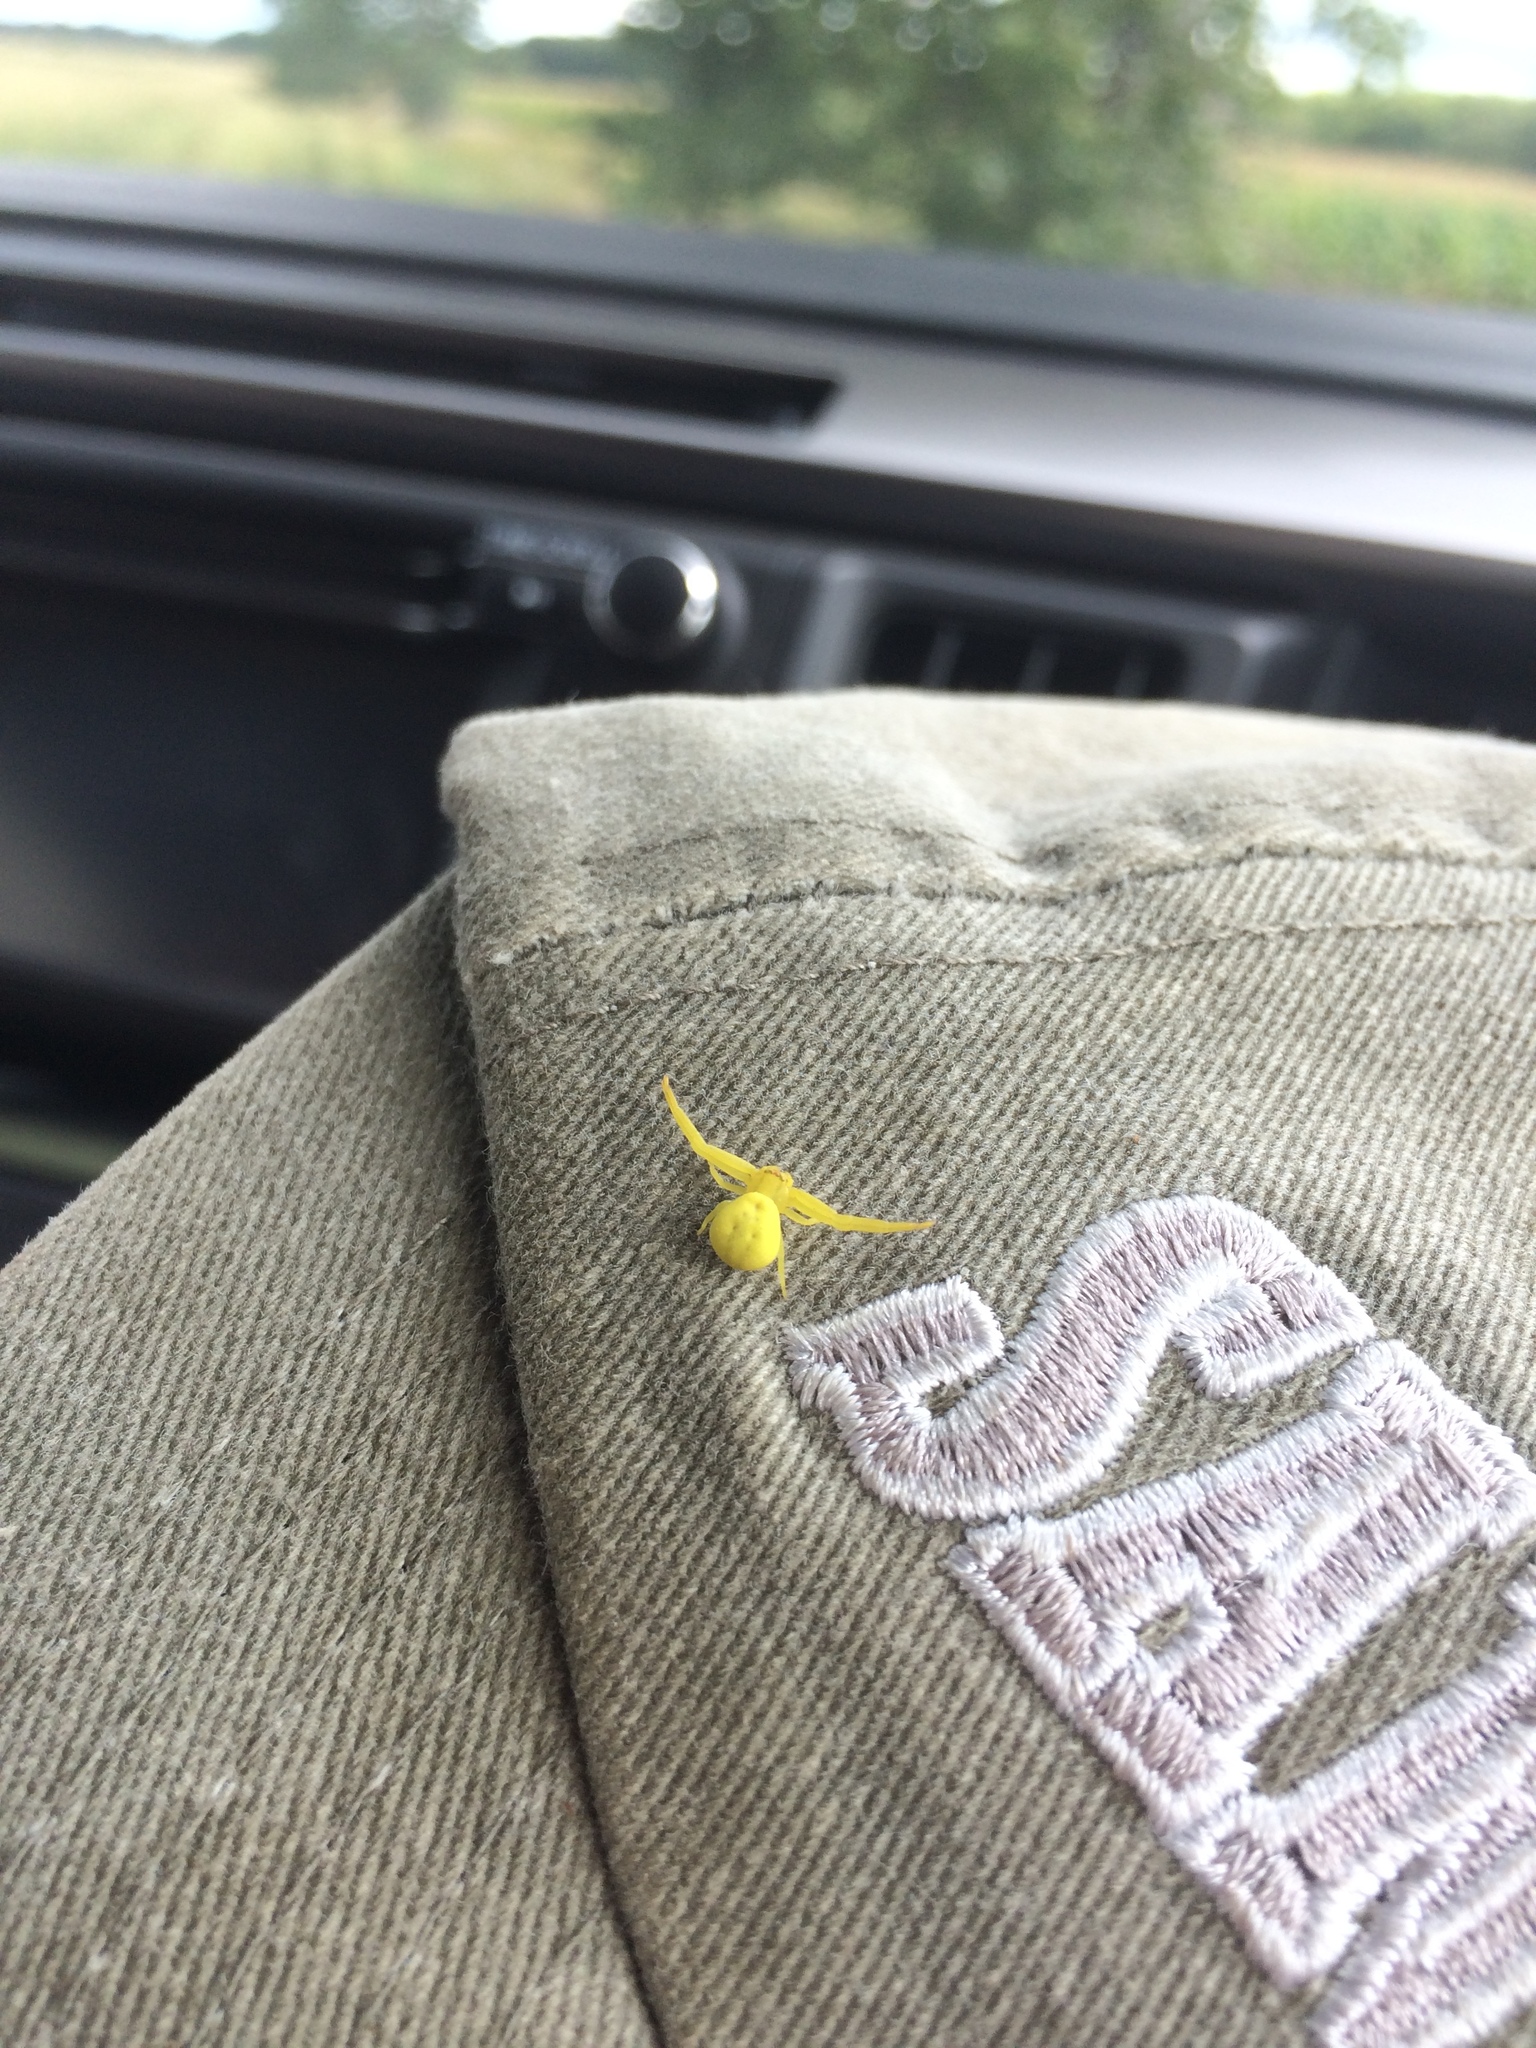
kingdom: Animalia
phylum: Arthropoda
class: Arachnida
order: Araneae
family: Thomisidae
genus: Misumena
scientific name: Misumena vatia
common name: Goldenrod crab spider
